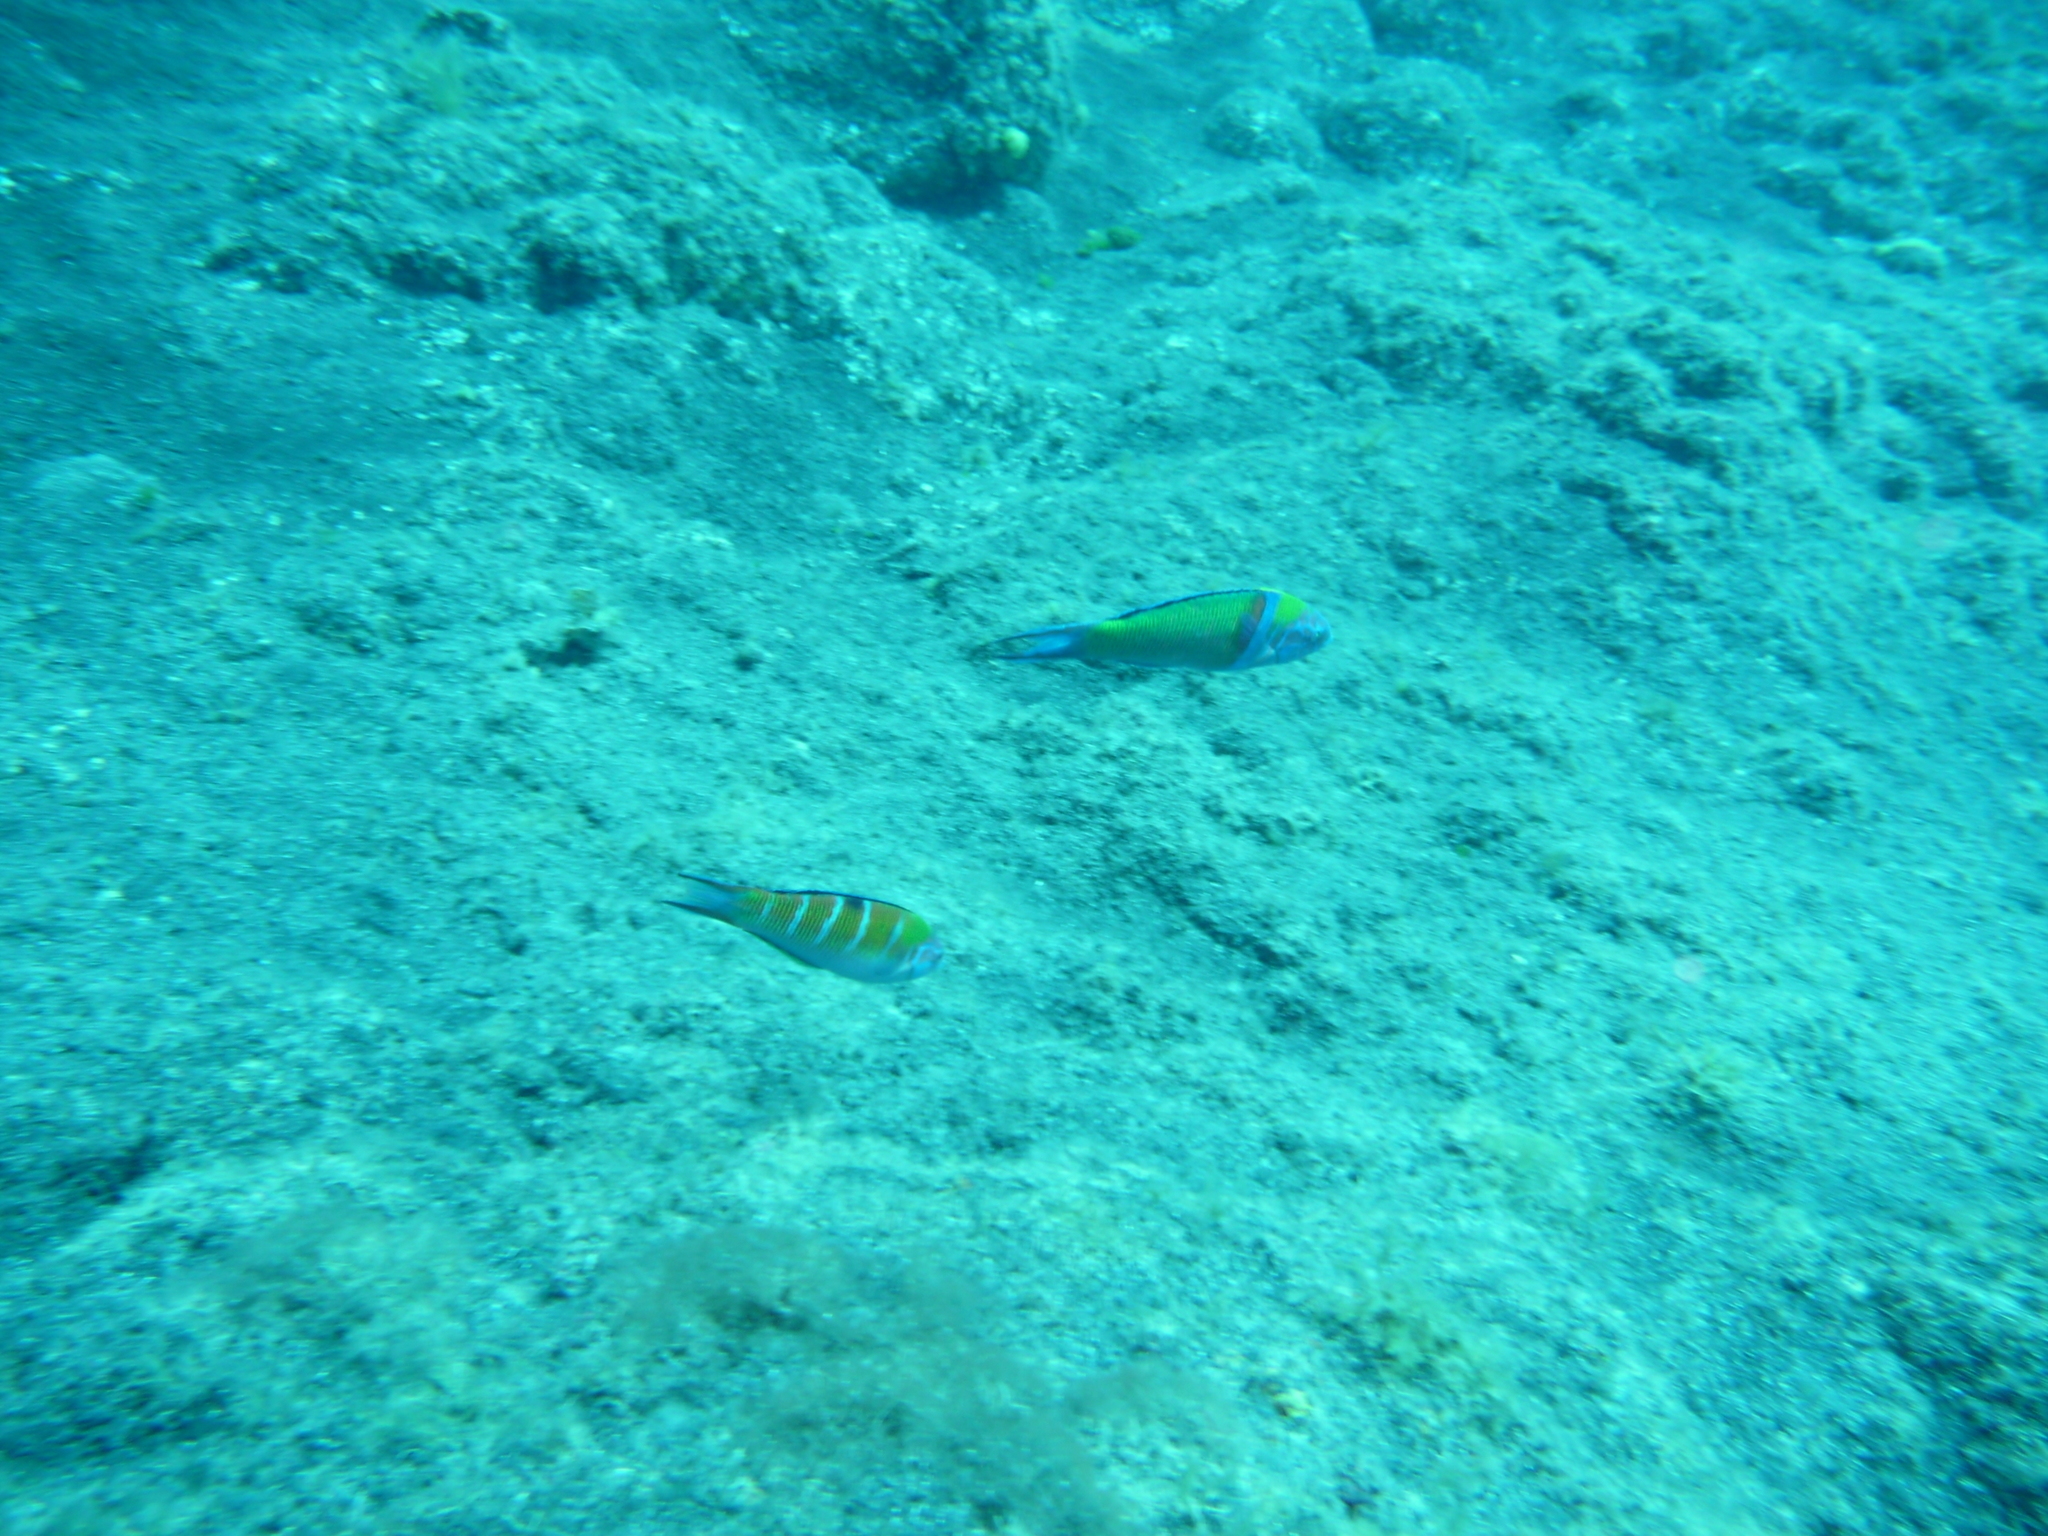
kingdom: Animalia
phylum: Chordata
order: Perciformes
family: Labridae
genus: Thalassoma
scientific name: Thalassoma pavo
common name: Ornate wrasse
